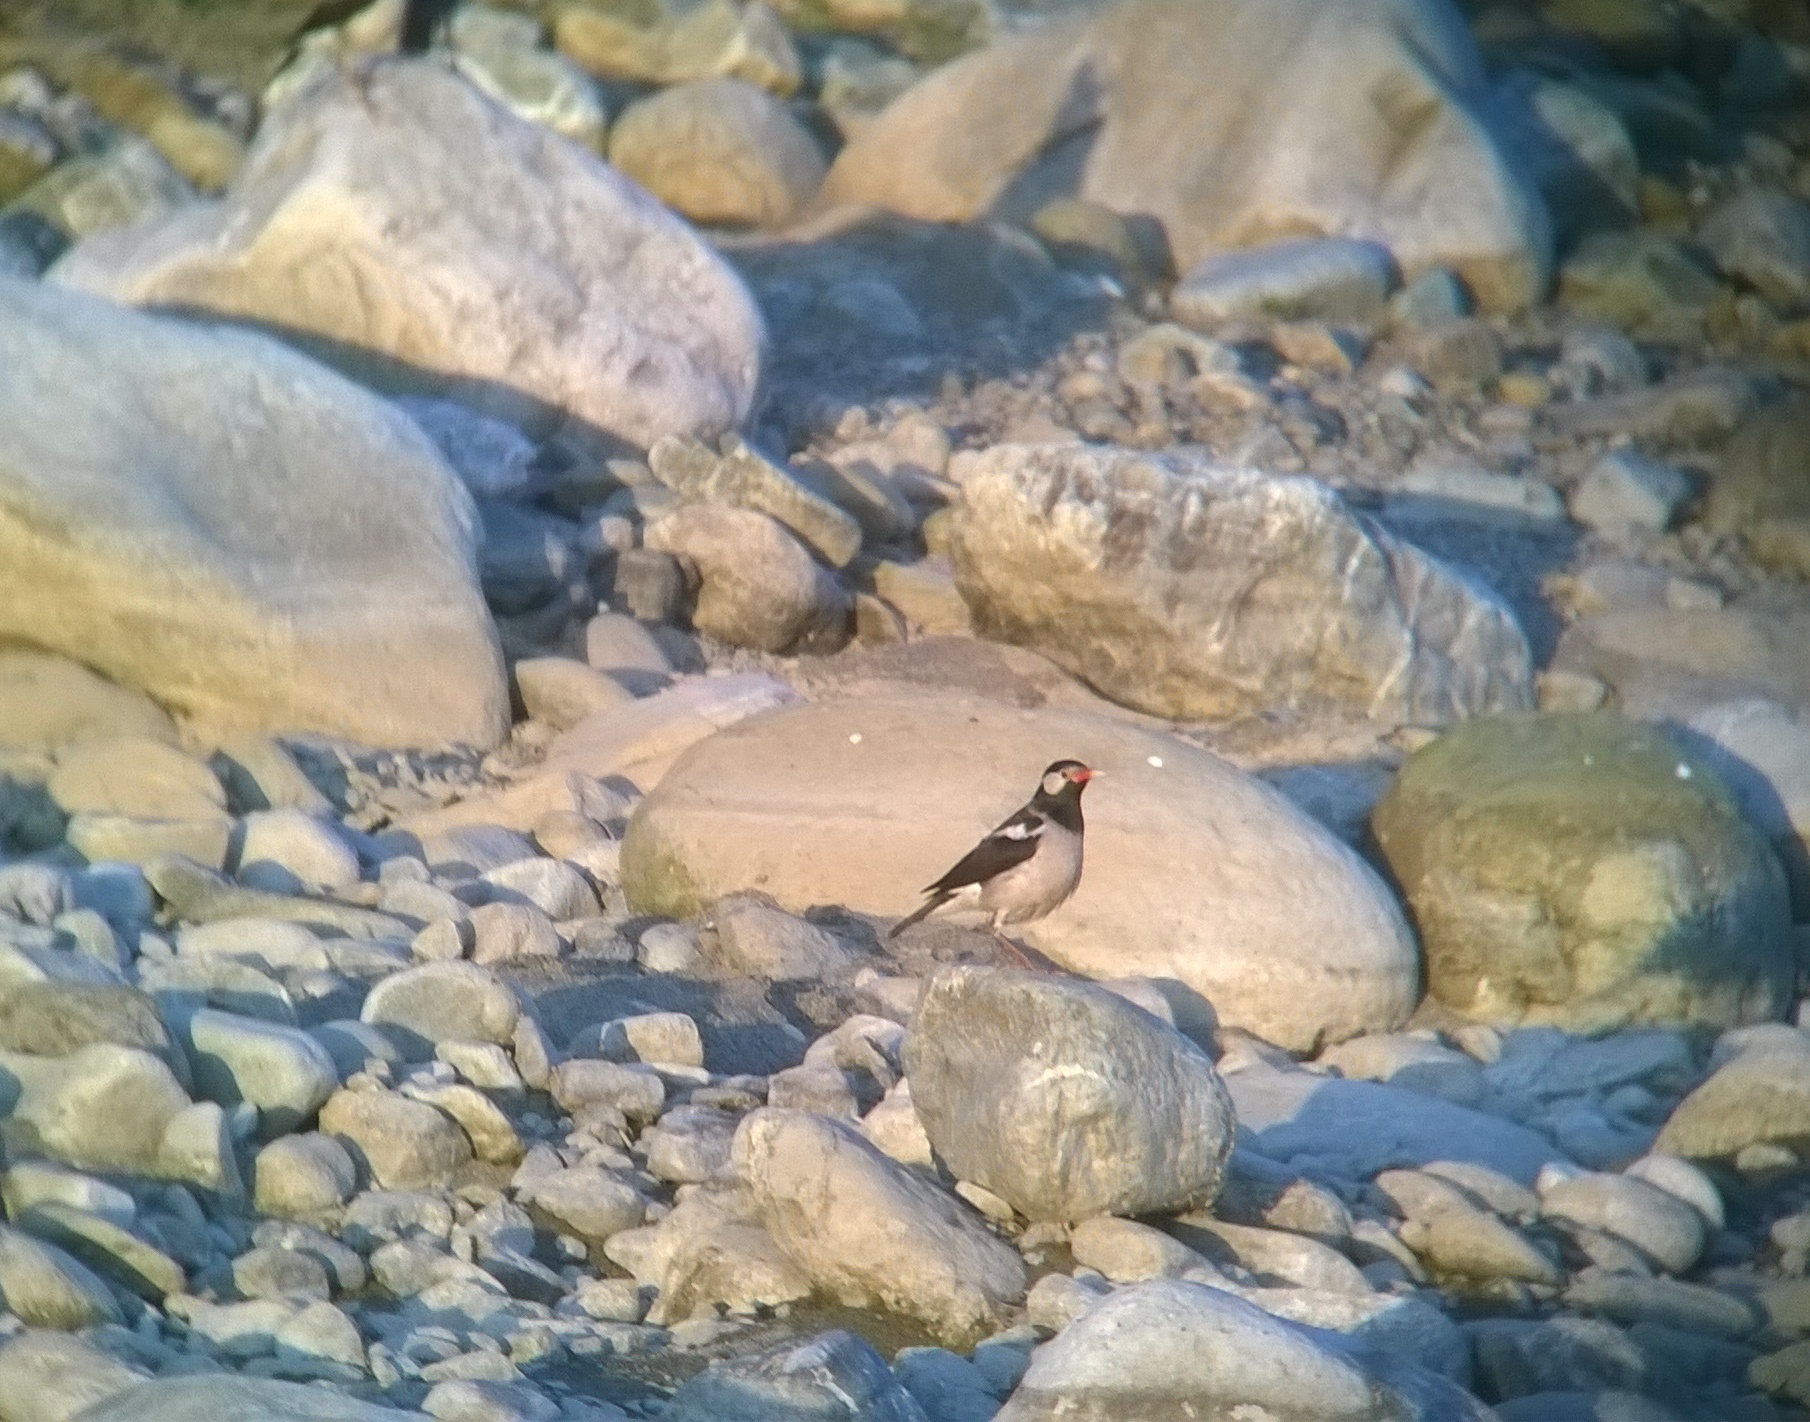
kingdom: Animalia
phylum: Chordata
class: Aves
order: Passeriformes
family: Sturnidae
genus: Gracupica
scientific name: Gracupica contra
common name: Pied myna
